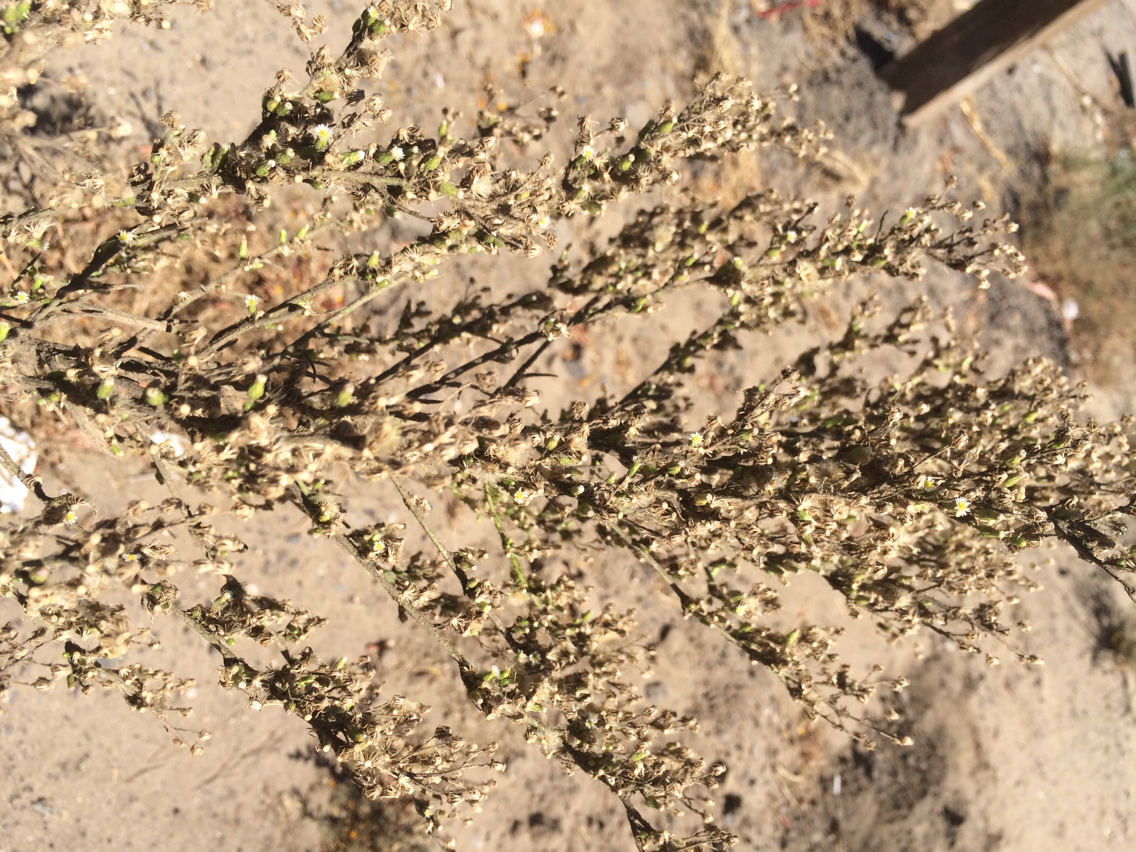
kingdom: Plantae
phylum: Tracheophyta
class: Magnoliopsida
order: Asterales
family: Asteraceae
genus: Erigeron
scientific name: Erigeron canadensis
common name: Canadian fleabane
